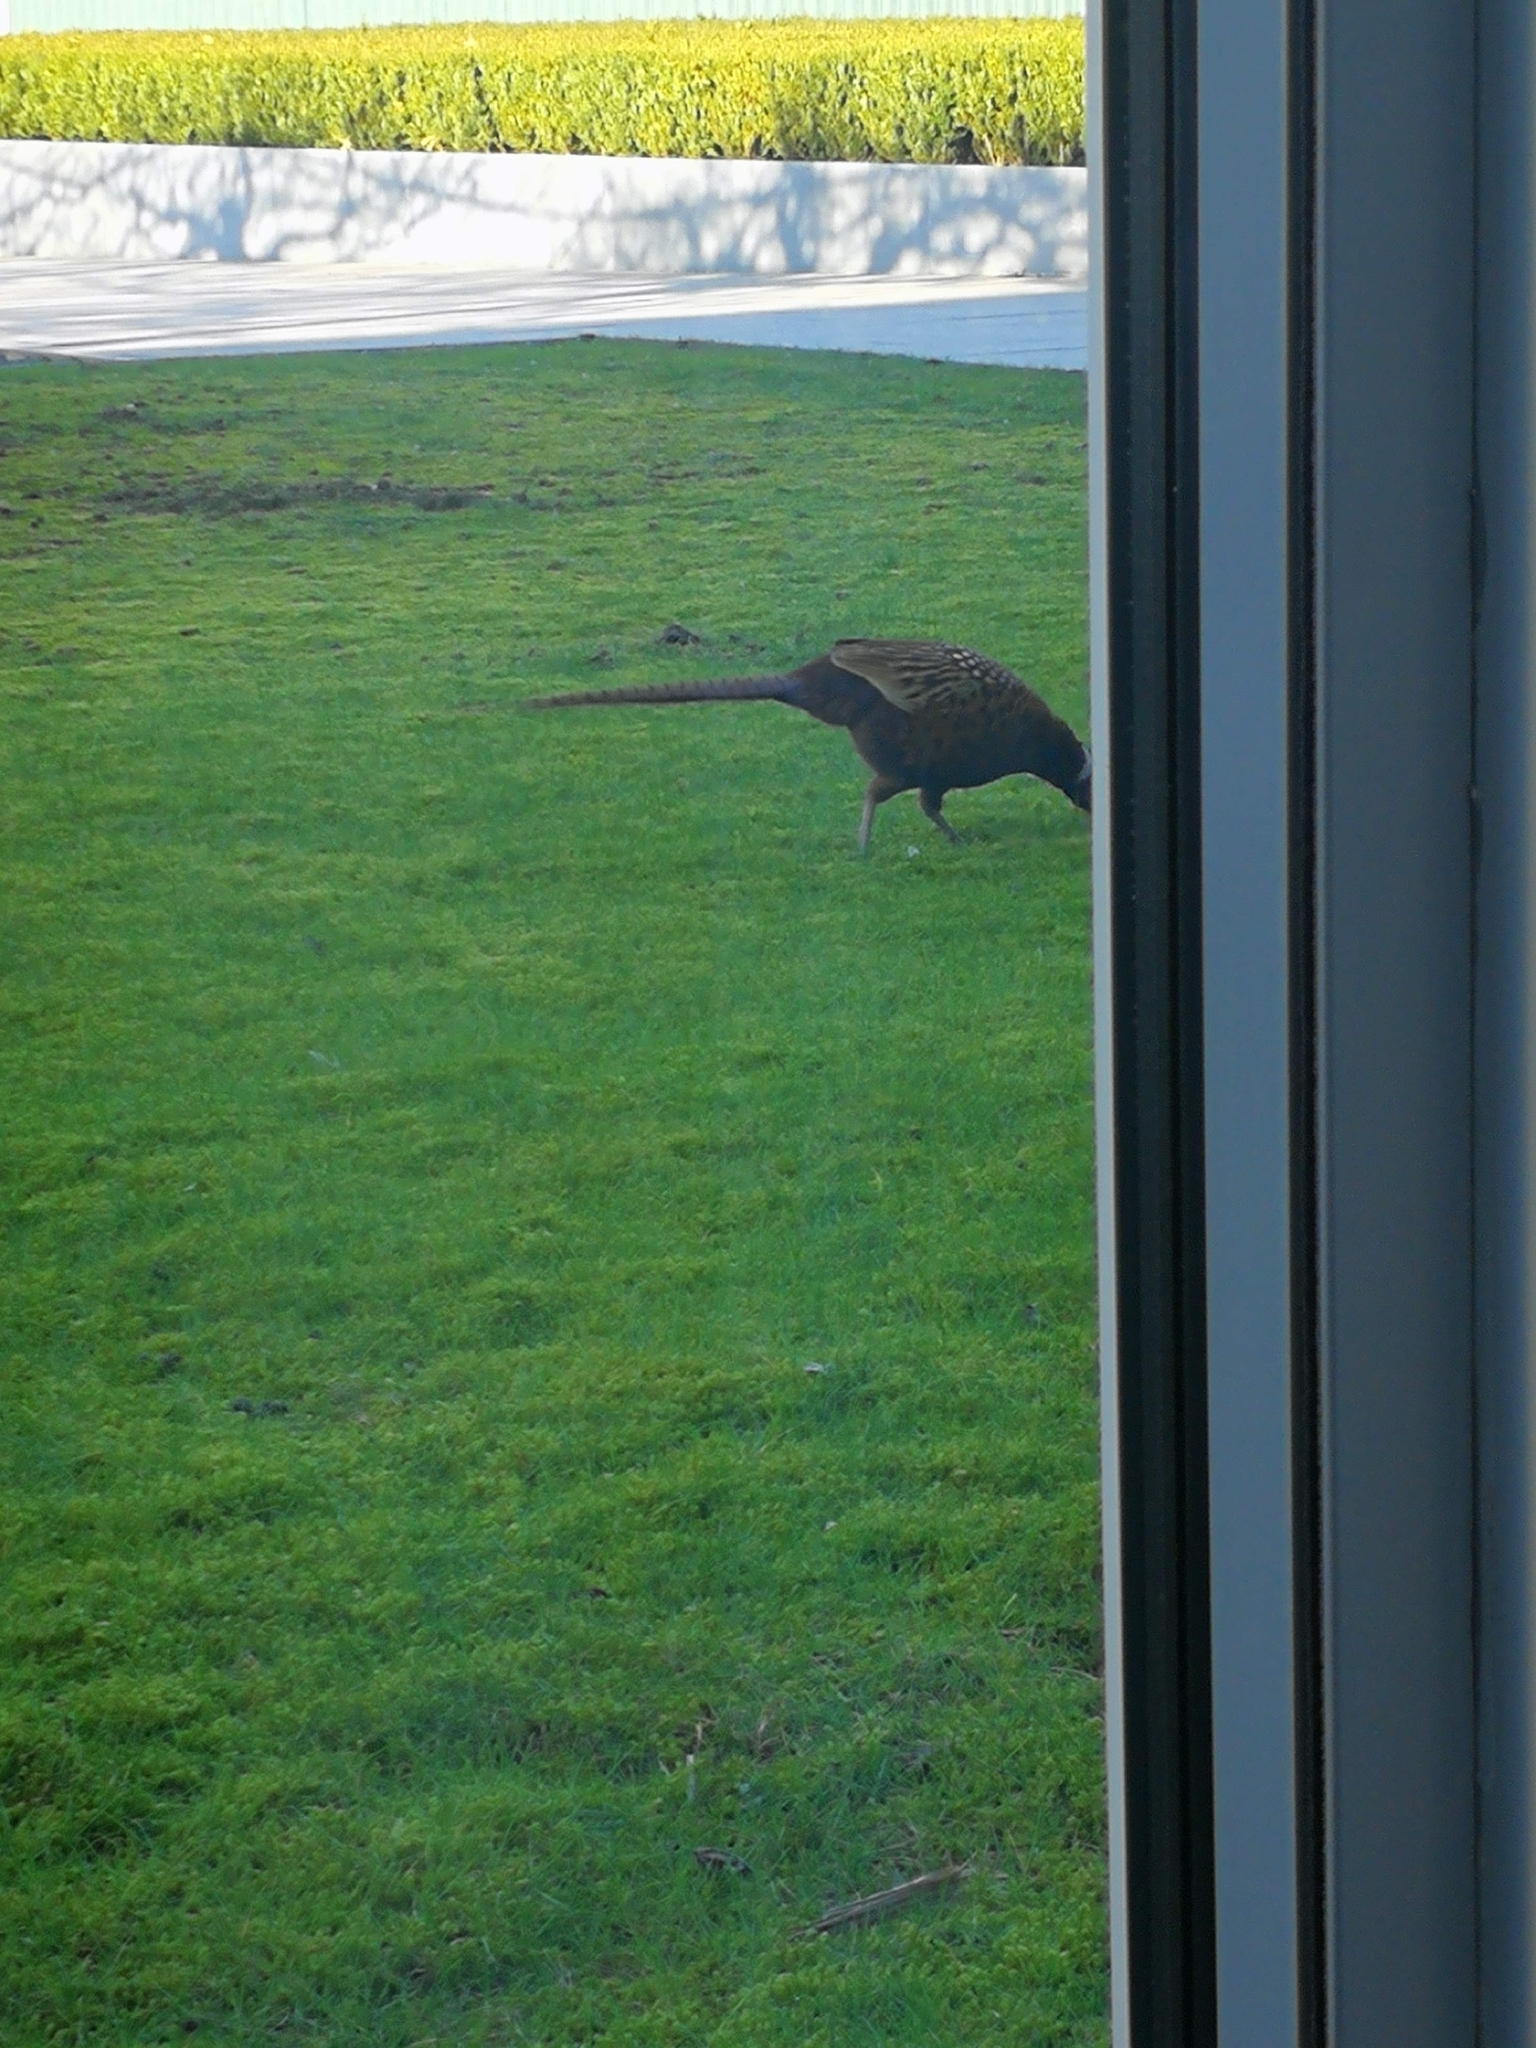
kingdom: Animalia
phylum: Chordata
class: Aves
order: Galliformes
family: Phasianidae
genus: Phasianus
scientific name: Phasianus colchicus
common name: Common pheasant
